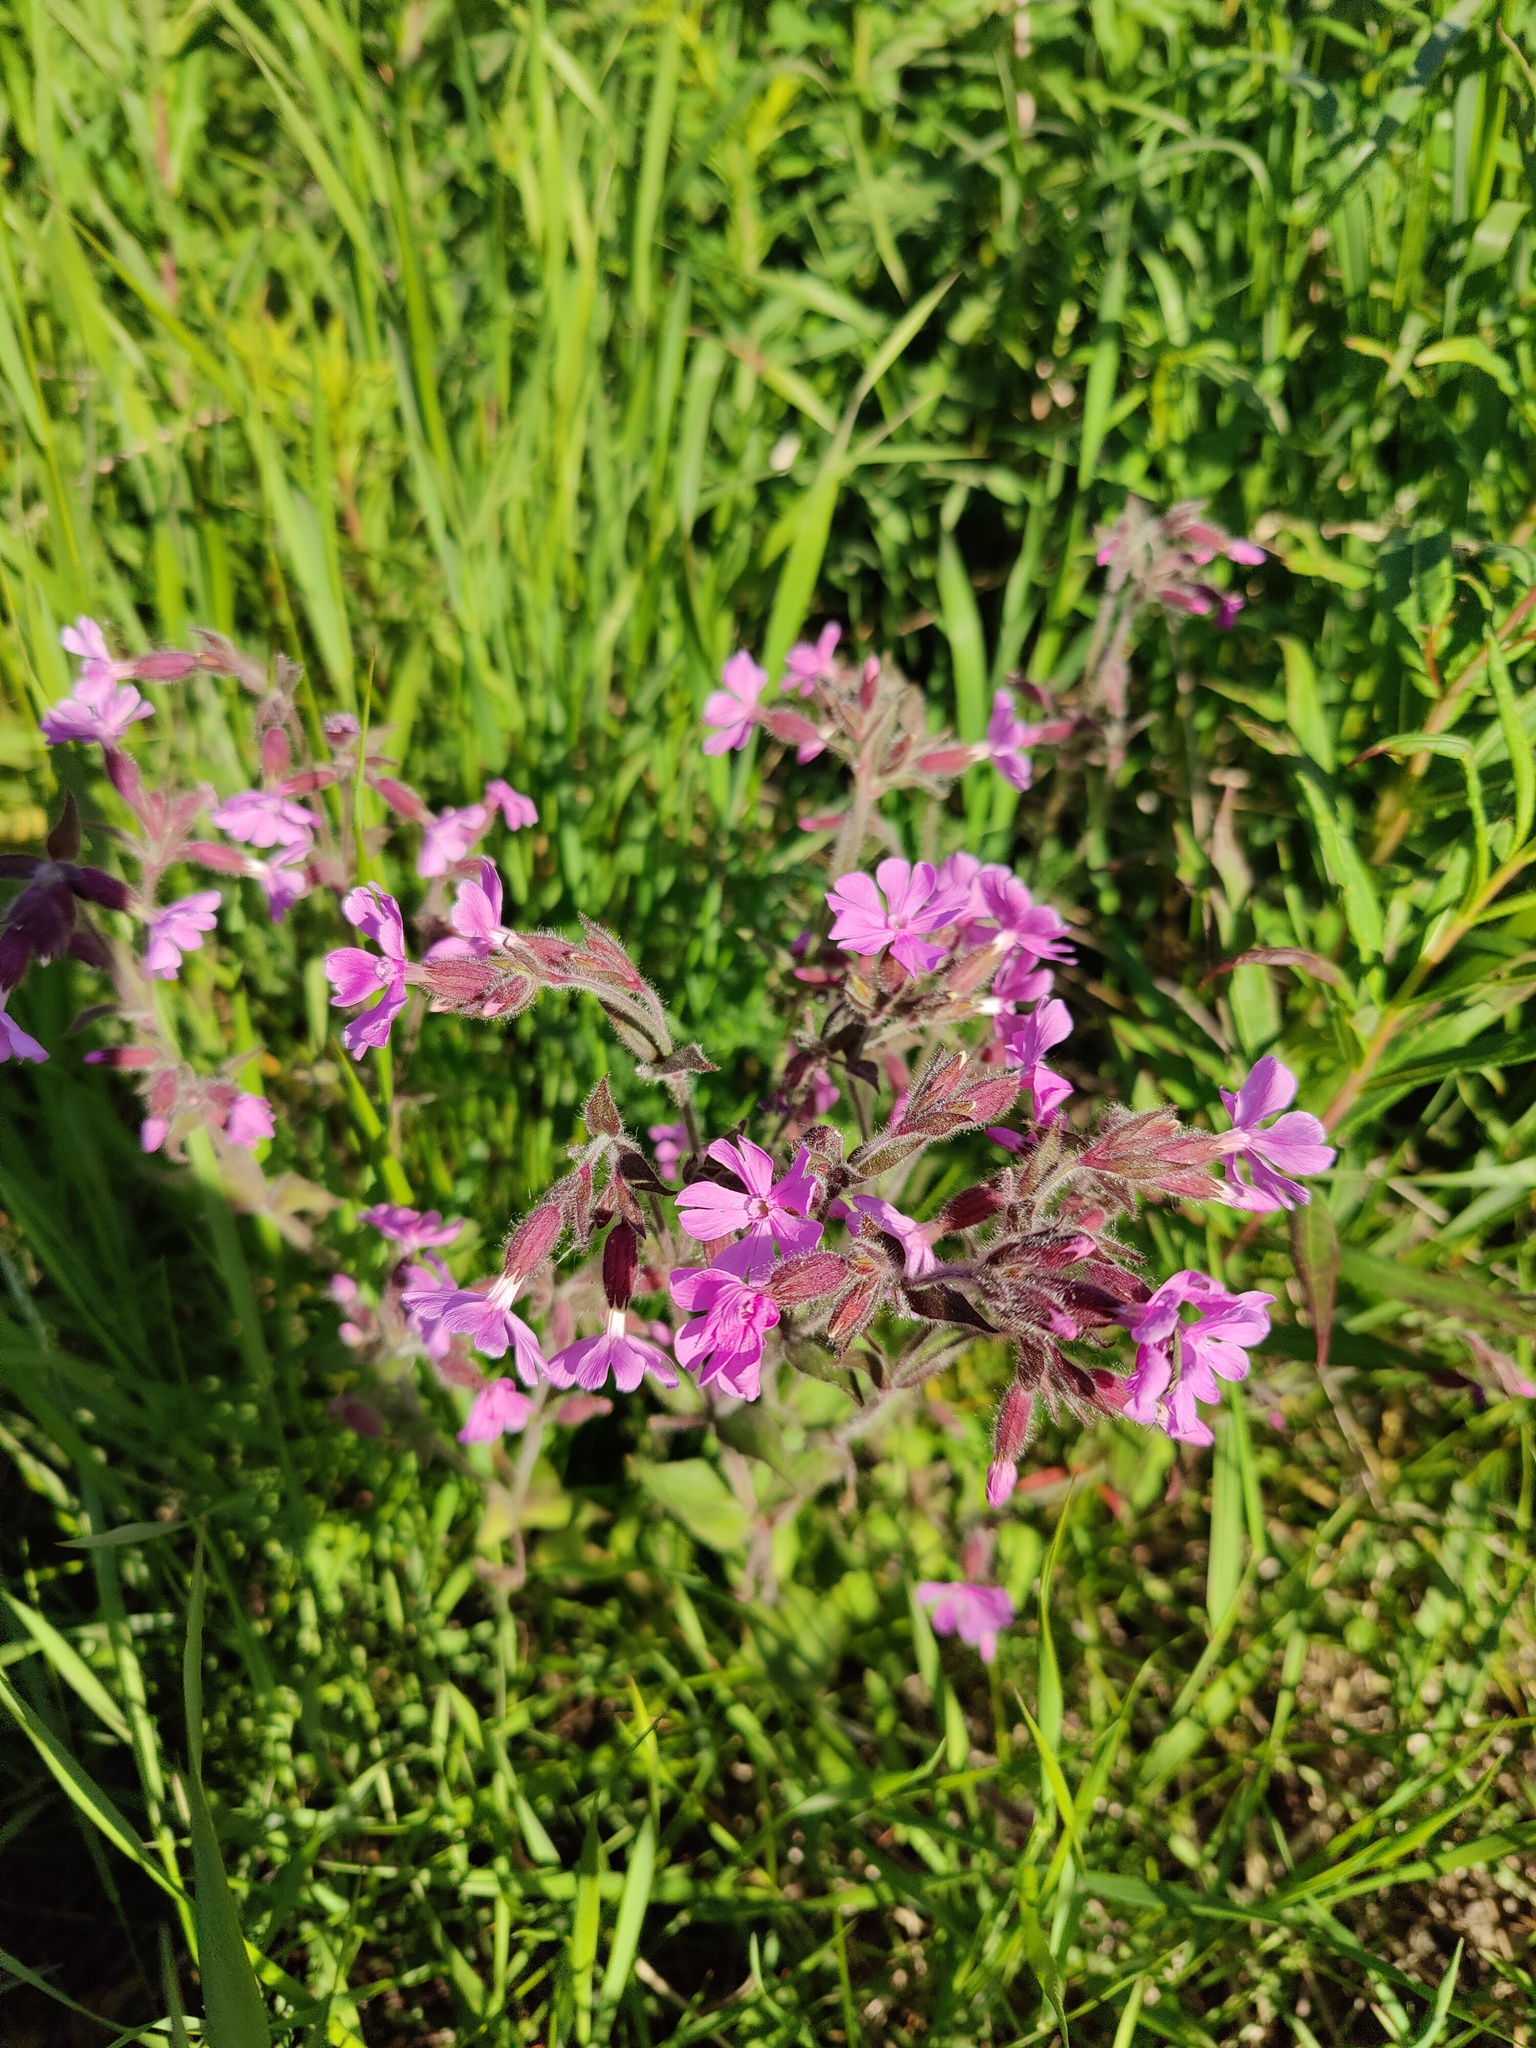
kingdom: Plantae
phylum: Tracheophyta
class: Magnoliopsida
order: Caryophyllales
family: Caryophyllaceae
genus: Silene
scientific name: Silene dioica
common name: Red campion
